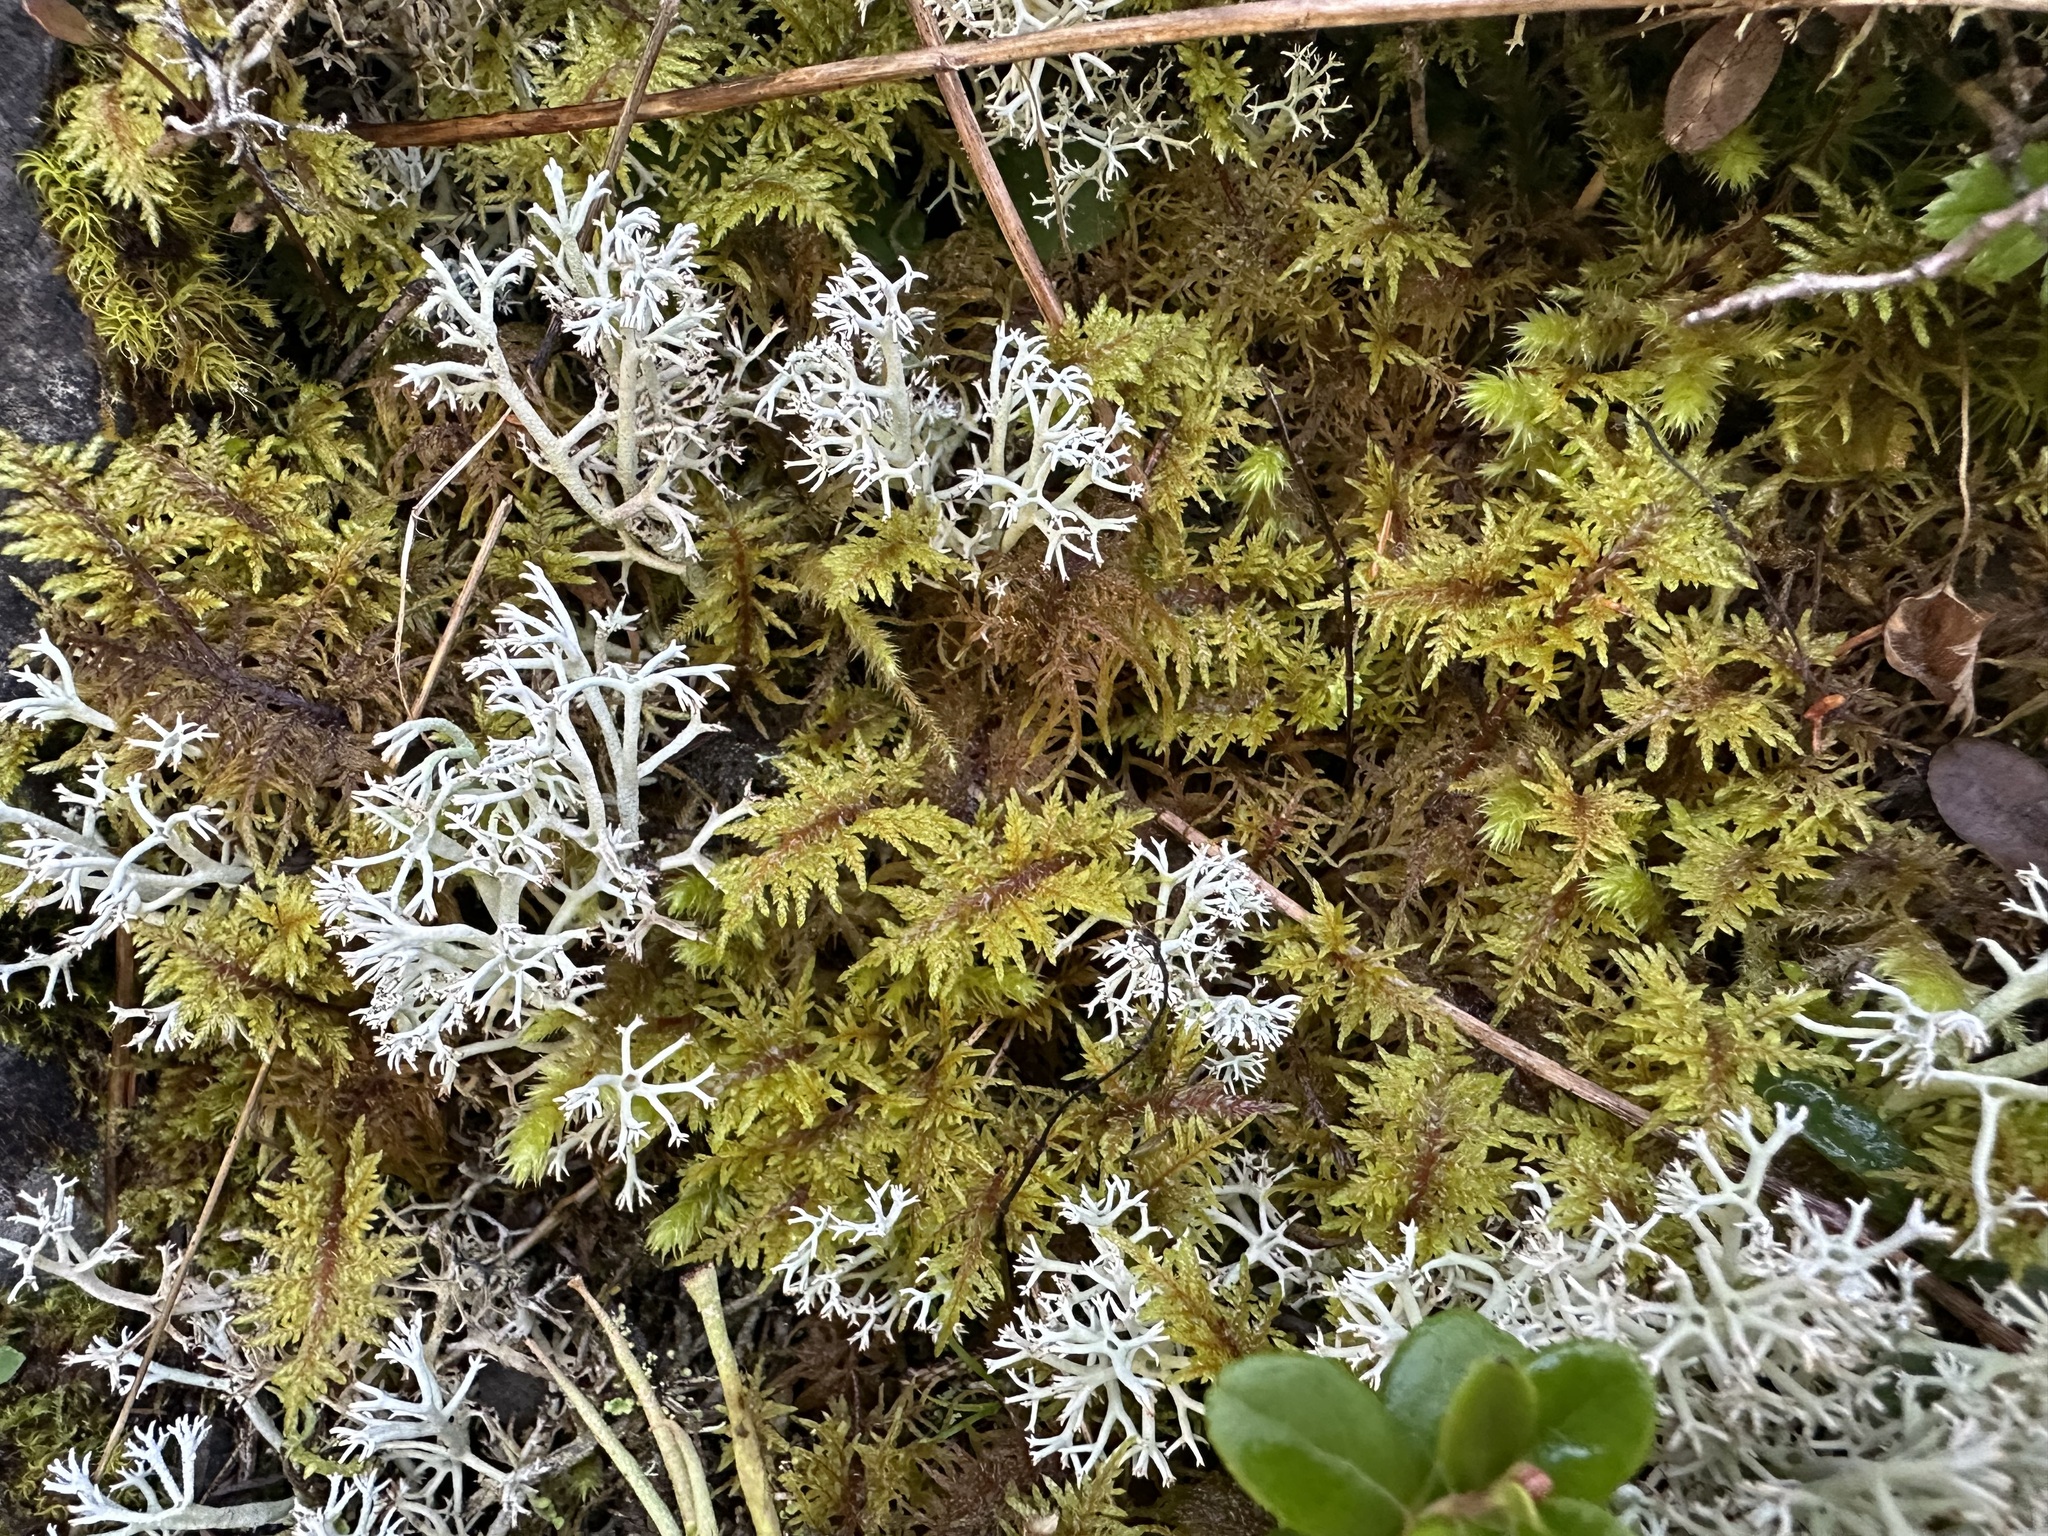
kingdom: Plantae
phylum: Bryophyta
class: Bryopsida
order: Hypnales
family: Hylocomiaceae
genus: Hylocomium
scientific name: Hylocomium splendens
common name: Stairstep moss
